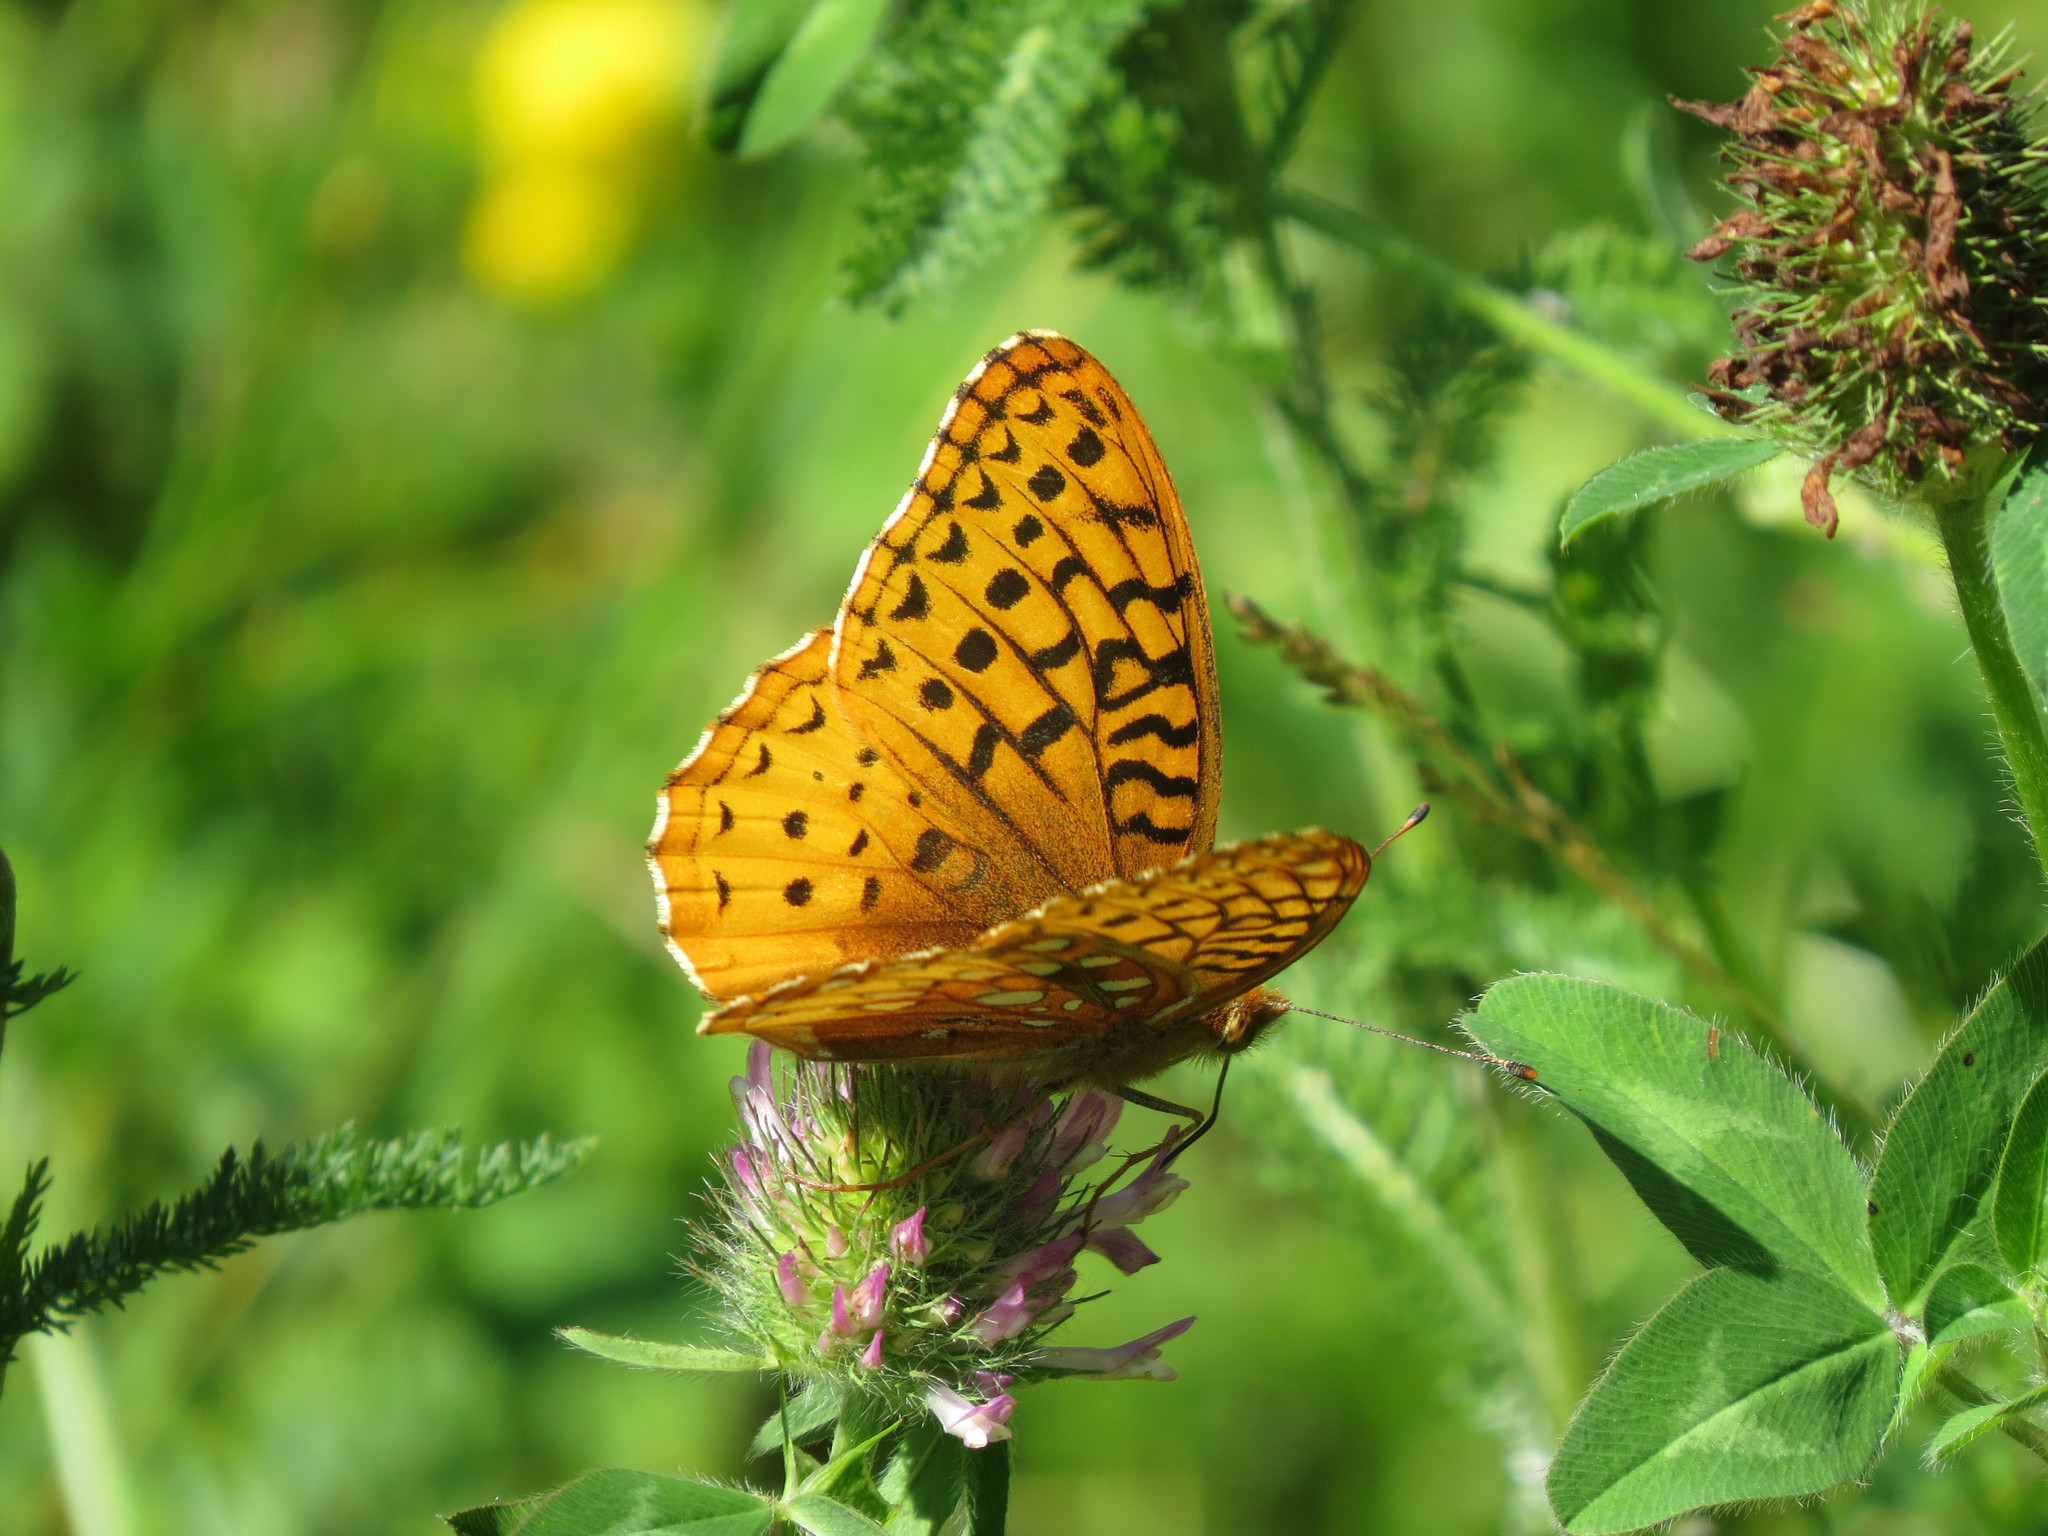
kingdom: Animalia
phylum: Arthropoda
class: Insecta
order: Lepidoptera
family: Nymphalidae
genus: Speyeria
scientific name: Speyeria cybele
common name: Great spangled fritillary
